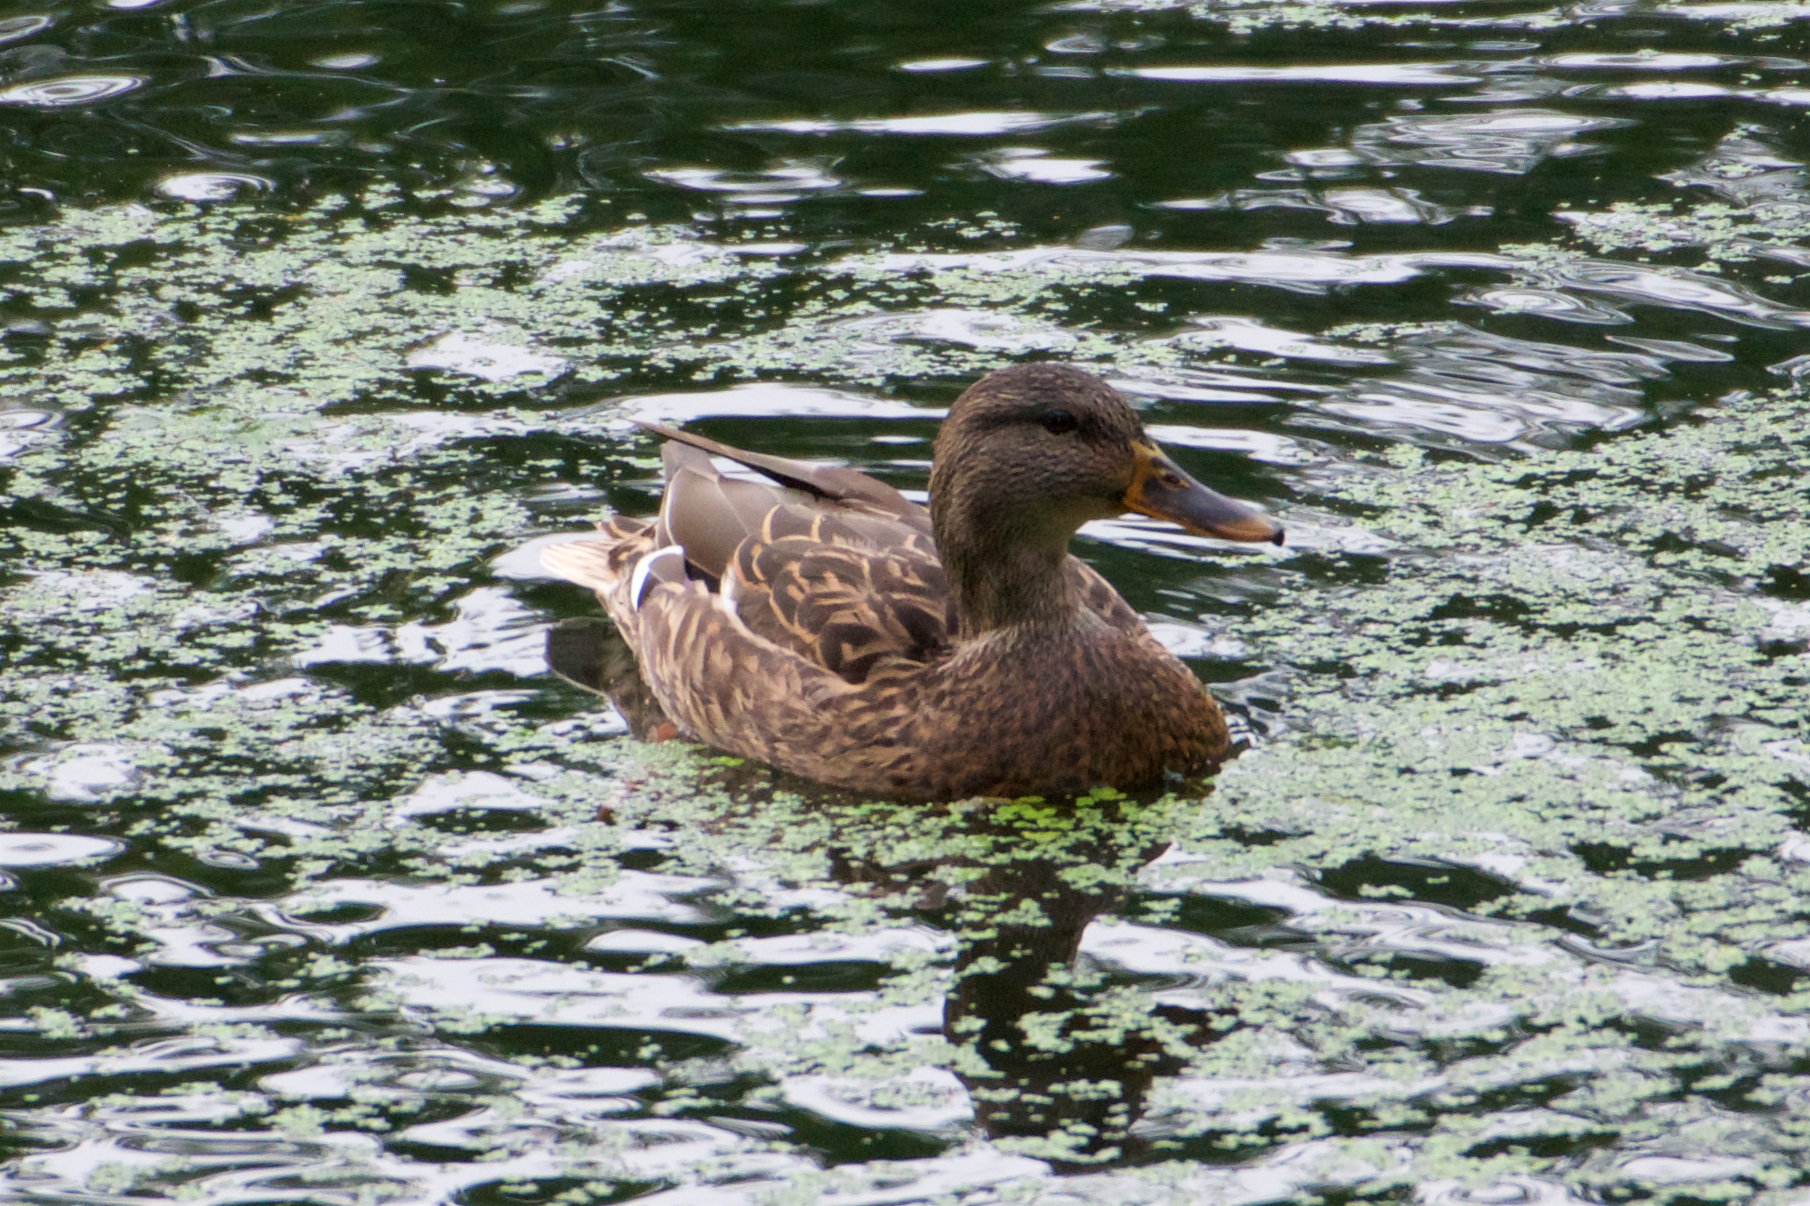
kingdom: Animalia
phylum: Chordata
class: Aves
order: Anseriformes
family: Anatidae
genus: Anas
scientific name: Anas platyrhynchos
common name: Mallard
